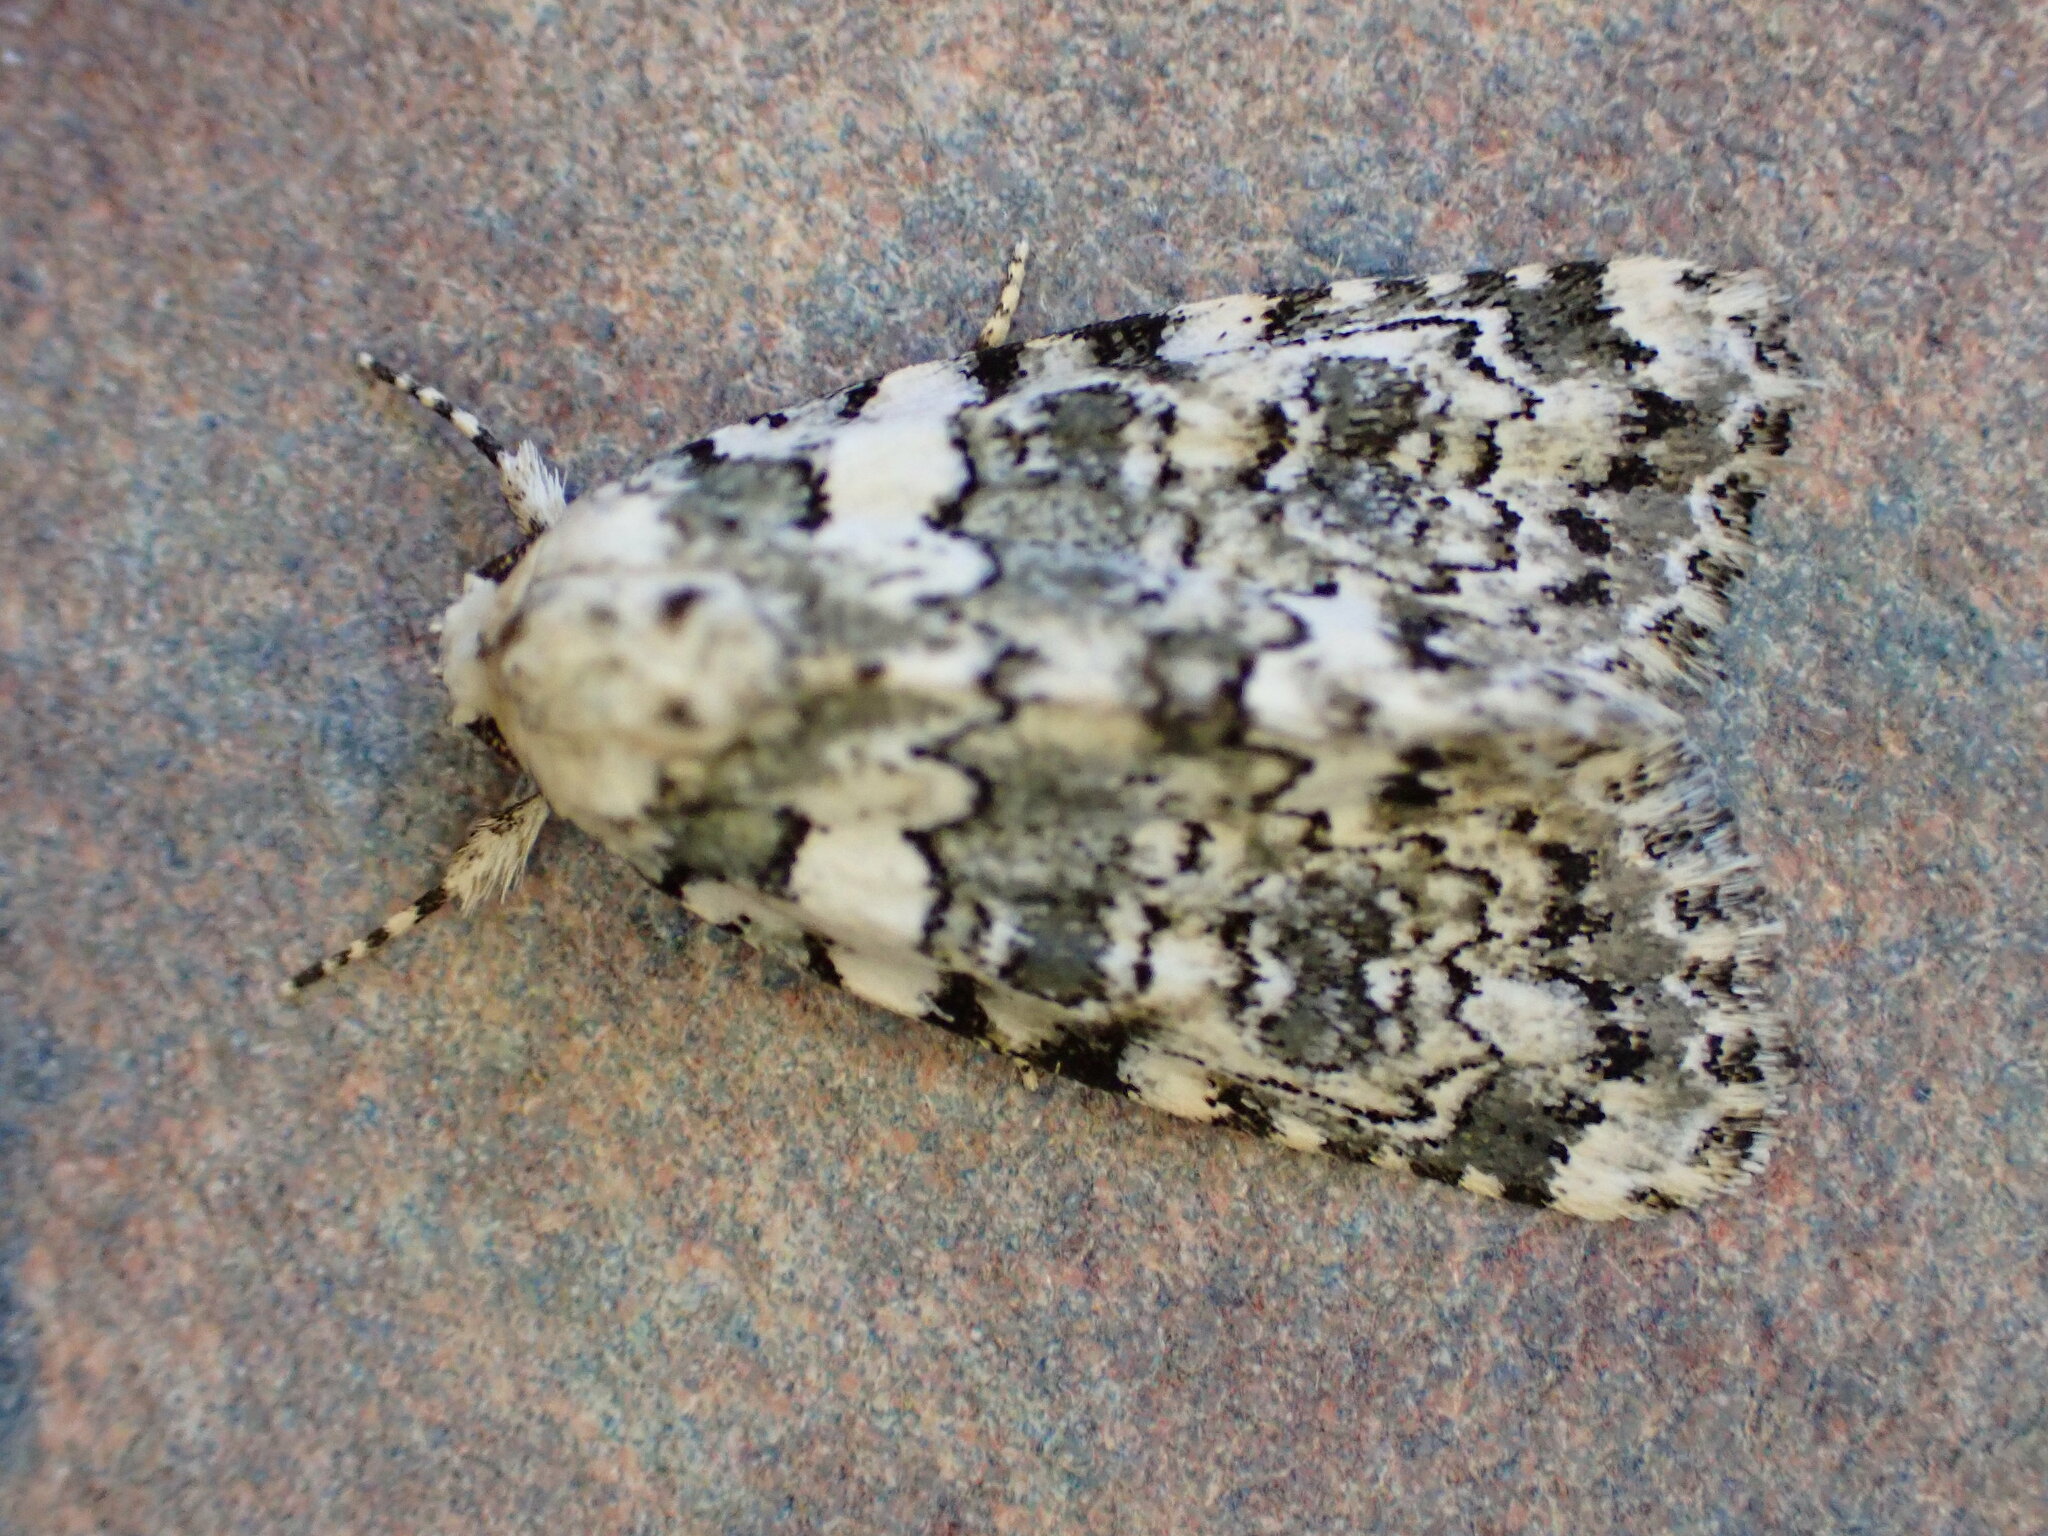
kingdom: Animalia
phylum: Arthropoda
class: Insecta
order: Lepidoptera
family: Noctuidae
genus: Bryophila
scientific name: Bryophila domestica
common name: Marbled beauty
